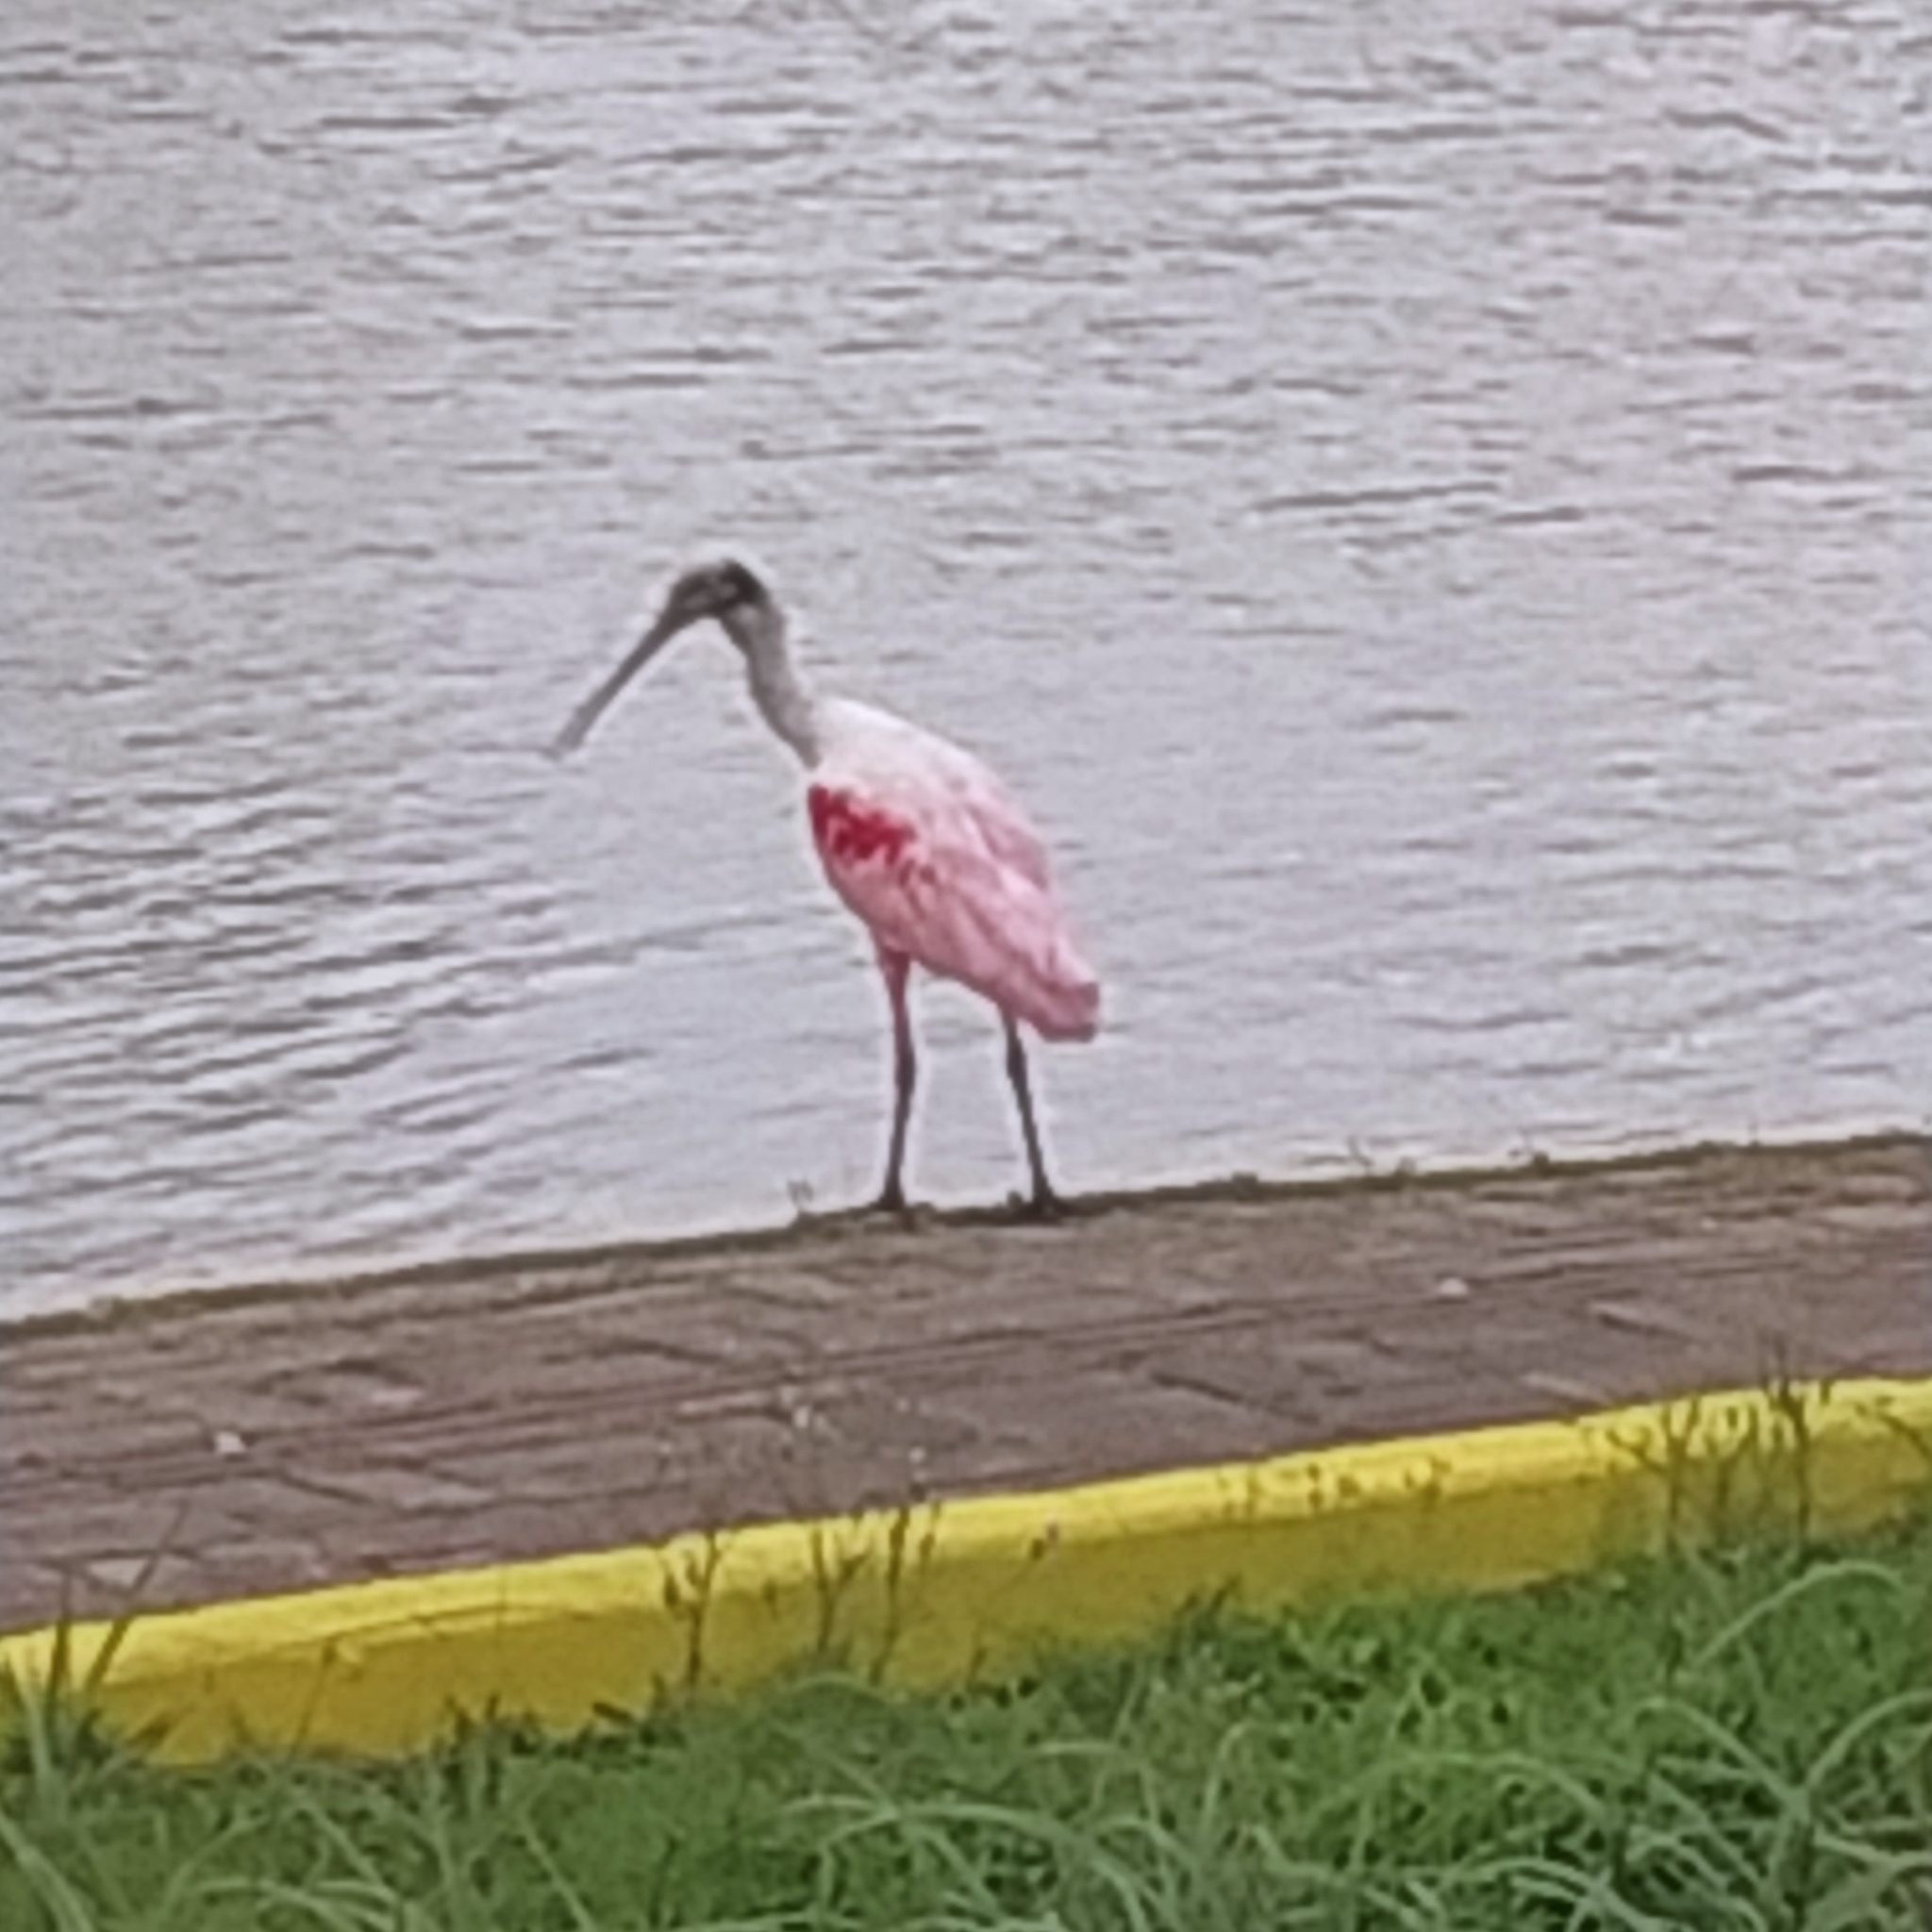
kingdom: Animalia
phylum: Chordata
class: Aves
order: Pelecaniformes
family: Threskiornithidae
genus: Platalea
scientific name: Platalea ajaja
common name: Roseate spoonbill
